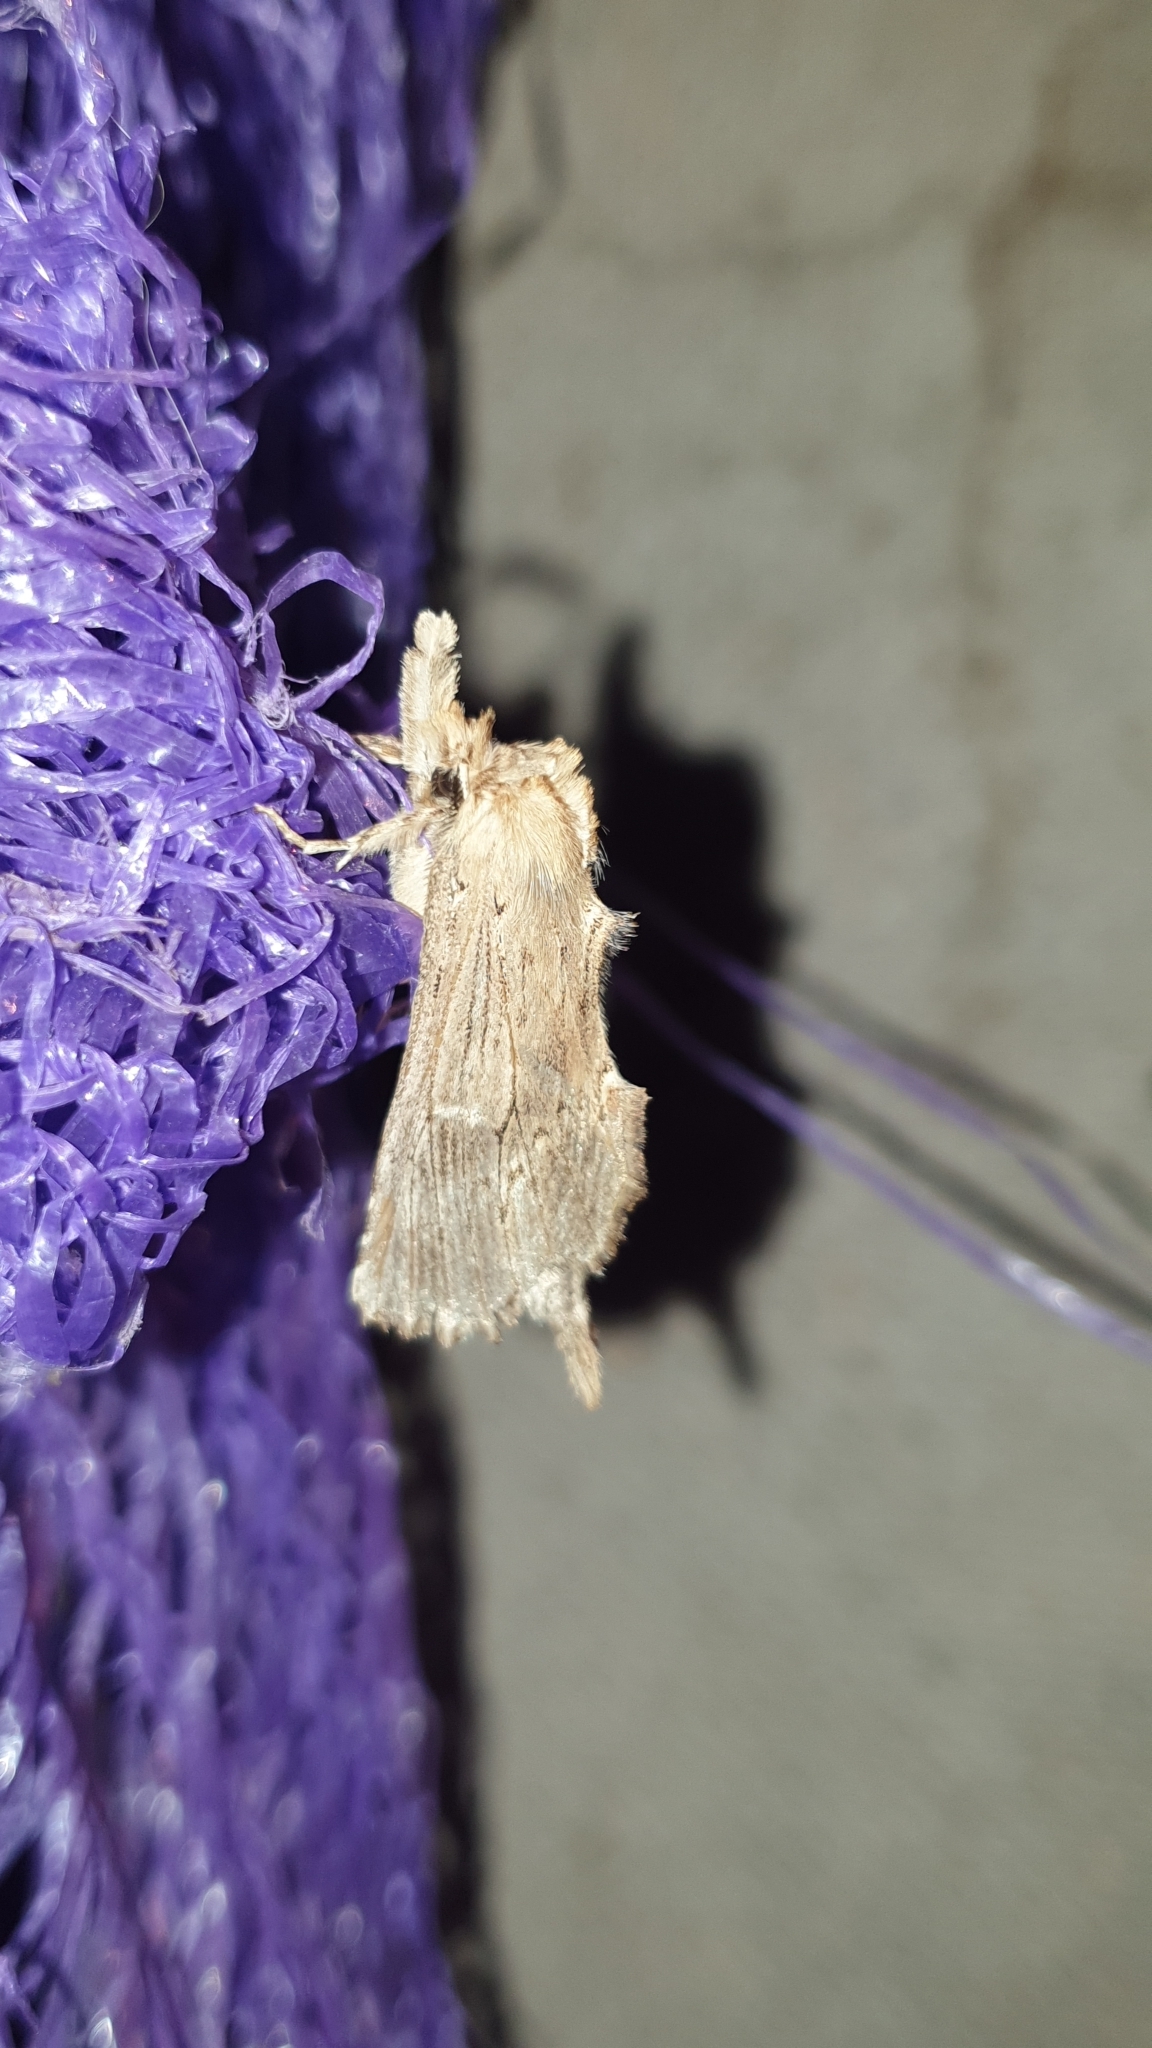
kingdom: Animalia
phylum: Arthropoda
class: Insecta
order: Lepidoptera
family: Notodontidae
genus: Pterostoma
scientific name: Pterostoma palpina
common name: Pale prominent
